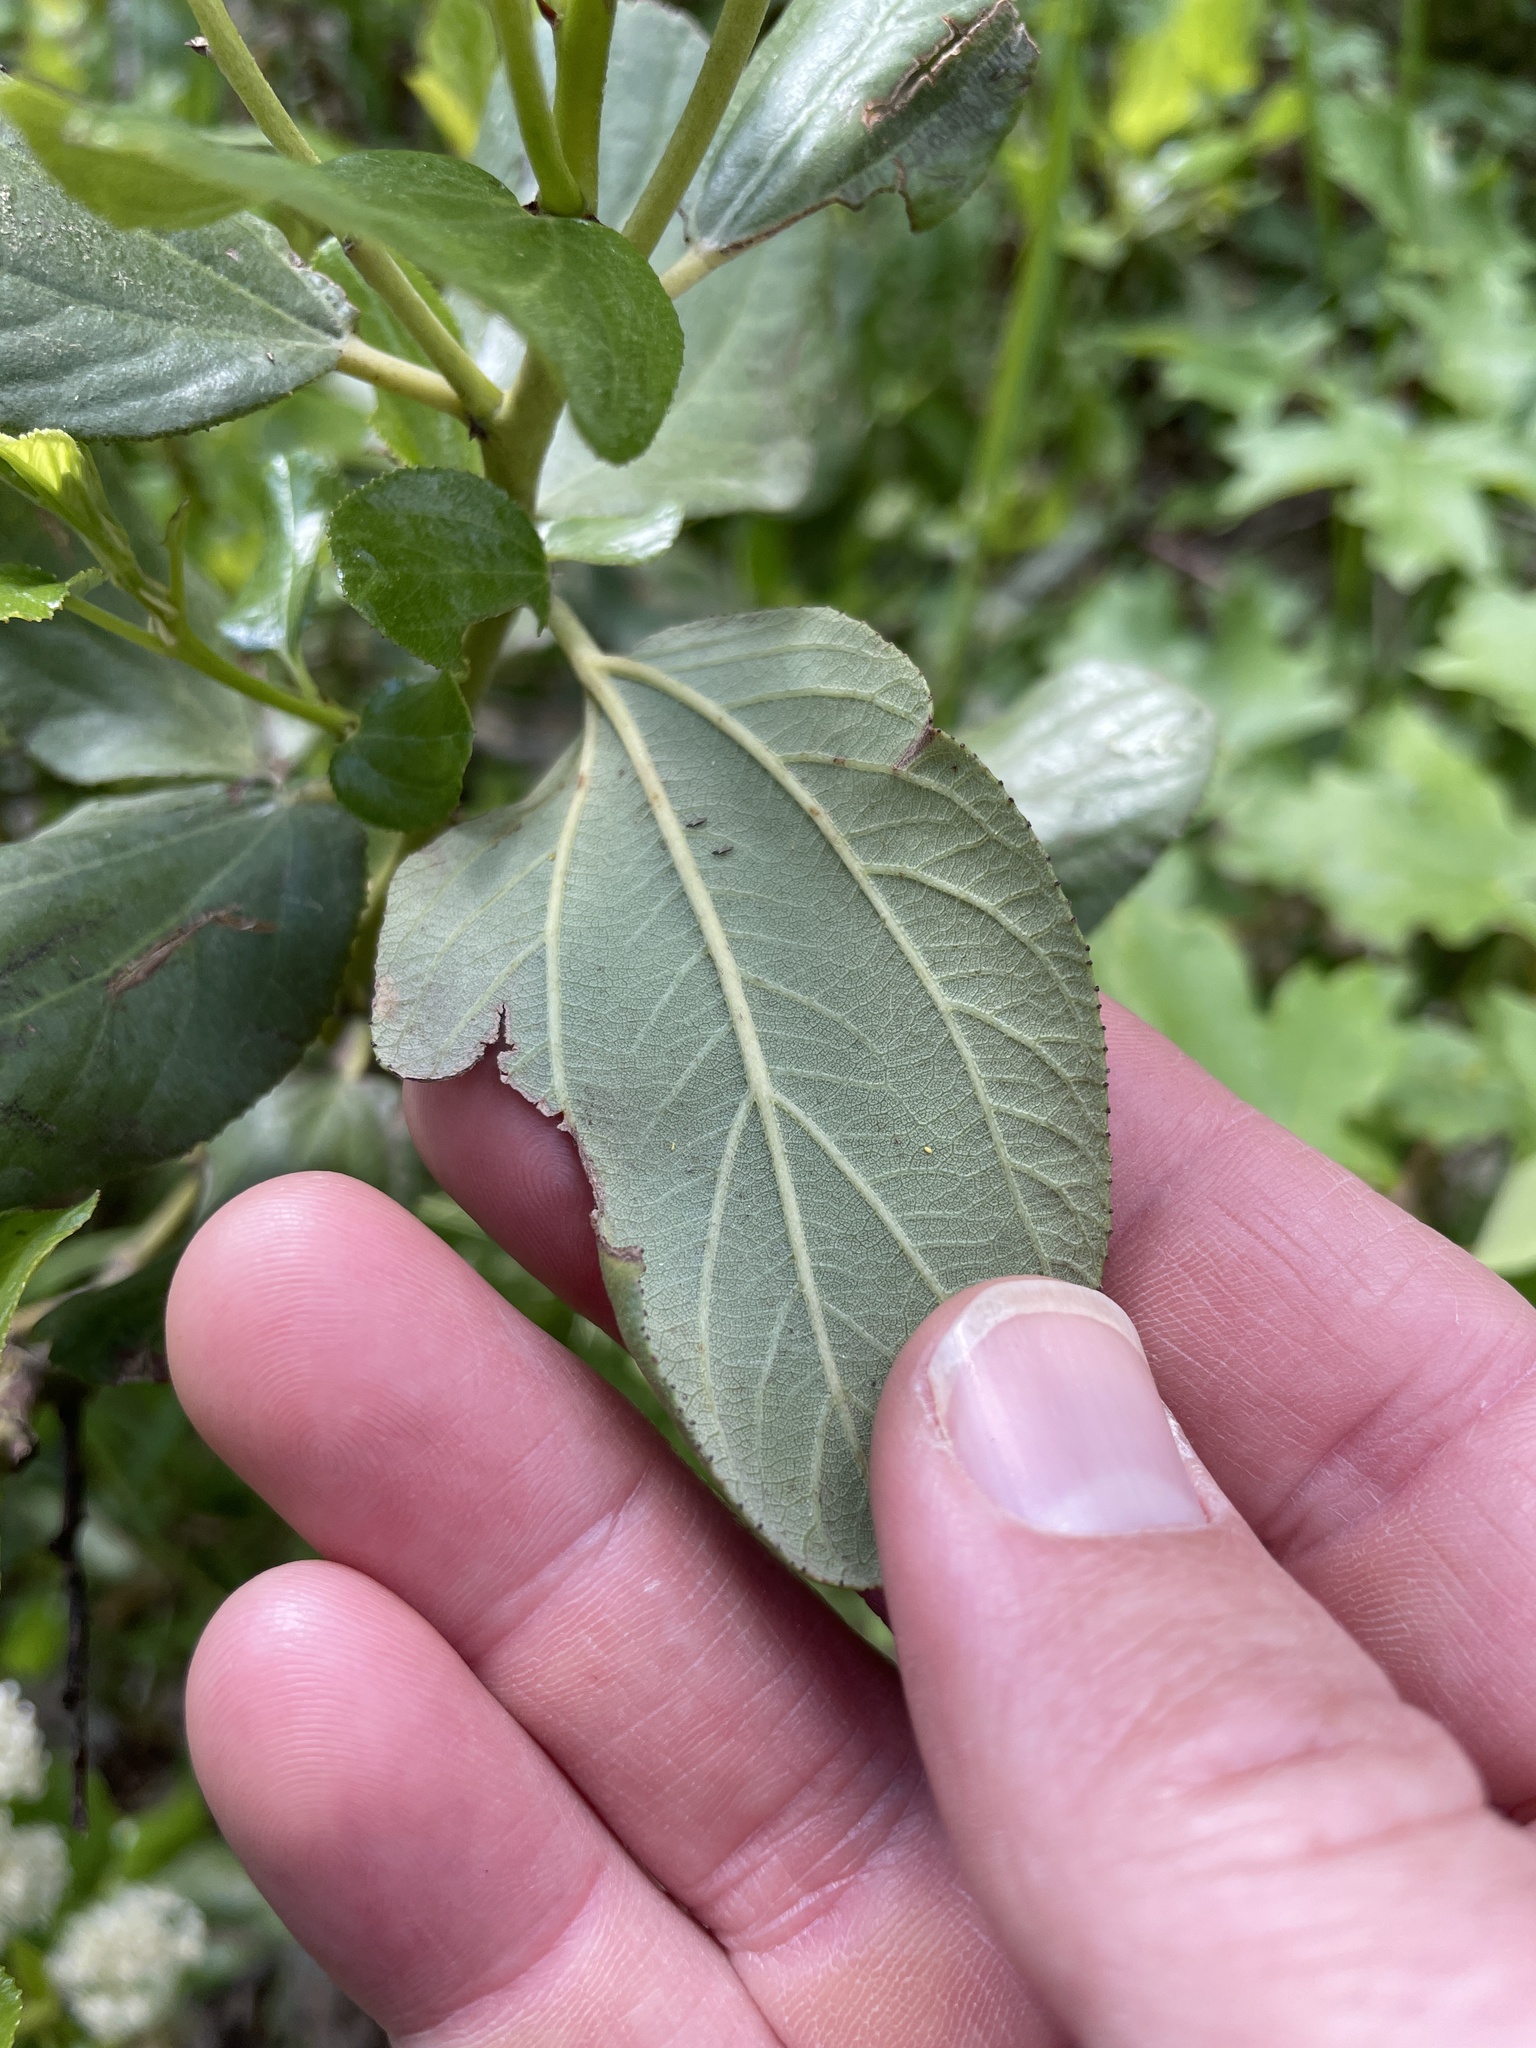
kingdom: Plantae
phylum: Tracheophyta
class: Magnoliopsida
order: Rosales
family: Rhamnaceae
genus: Ceanothus
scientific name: Ceanothus velutinus
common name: Snowbrush
